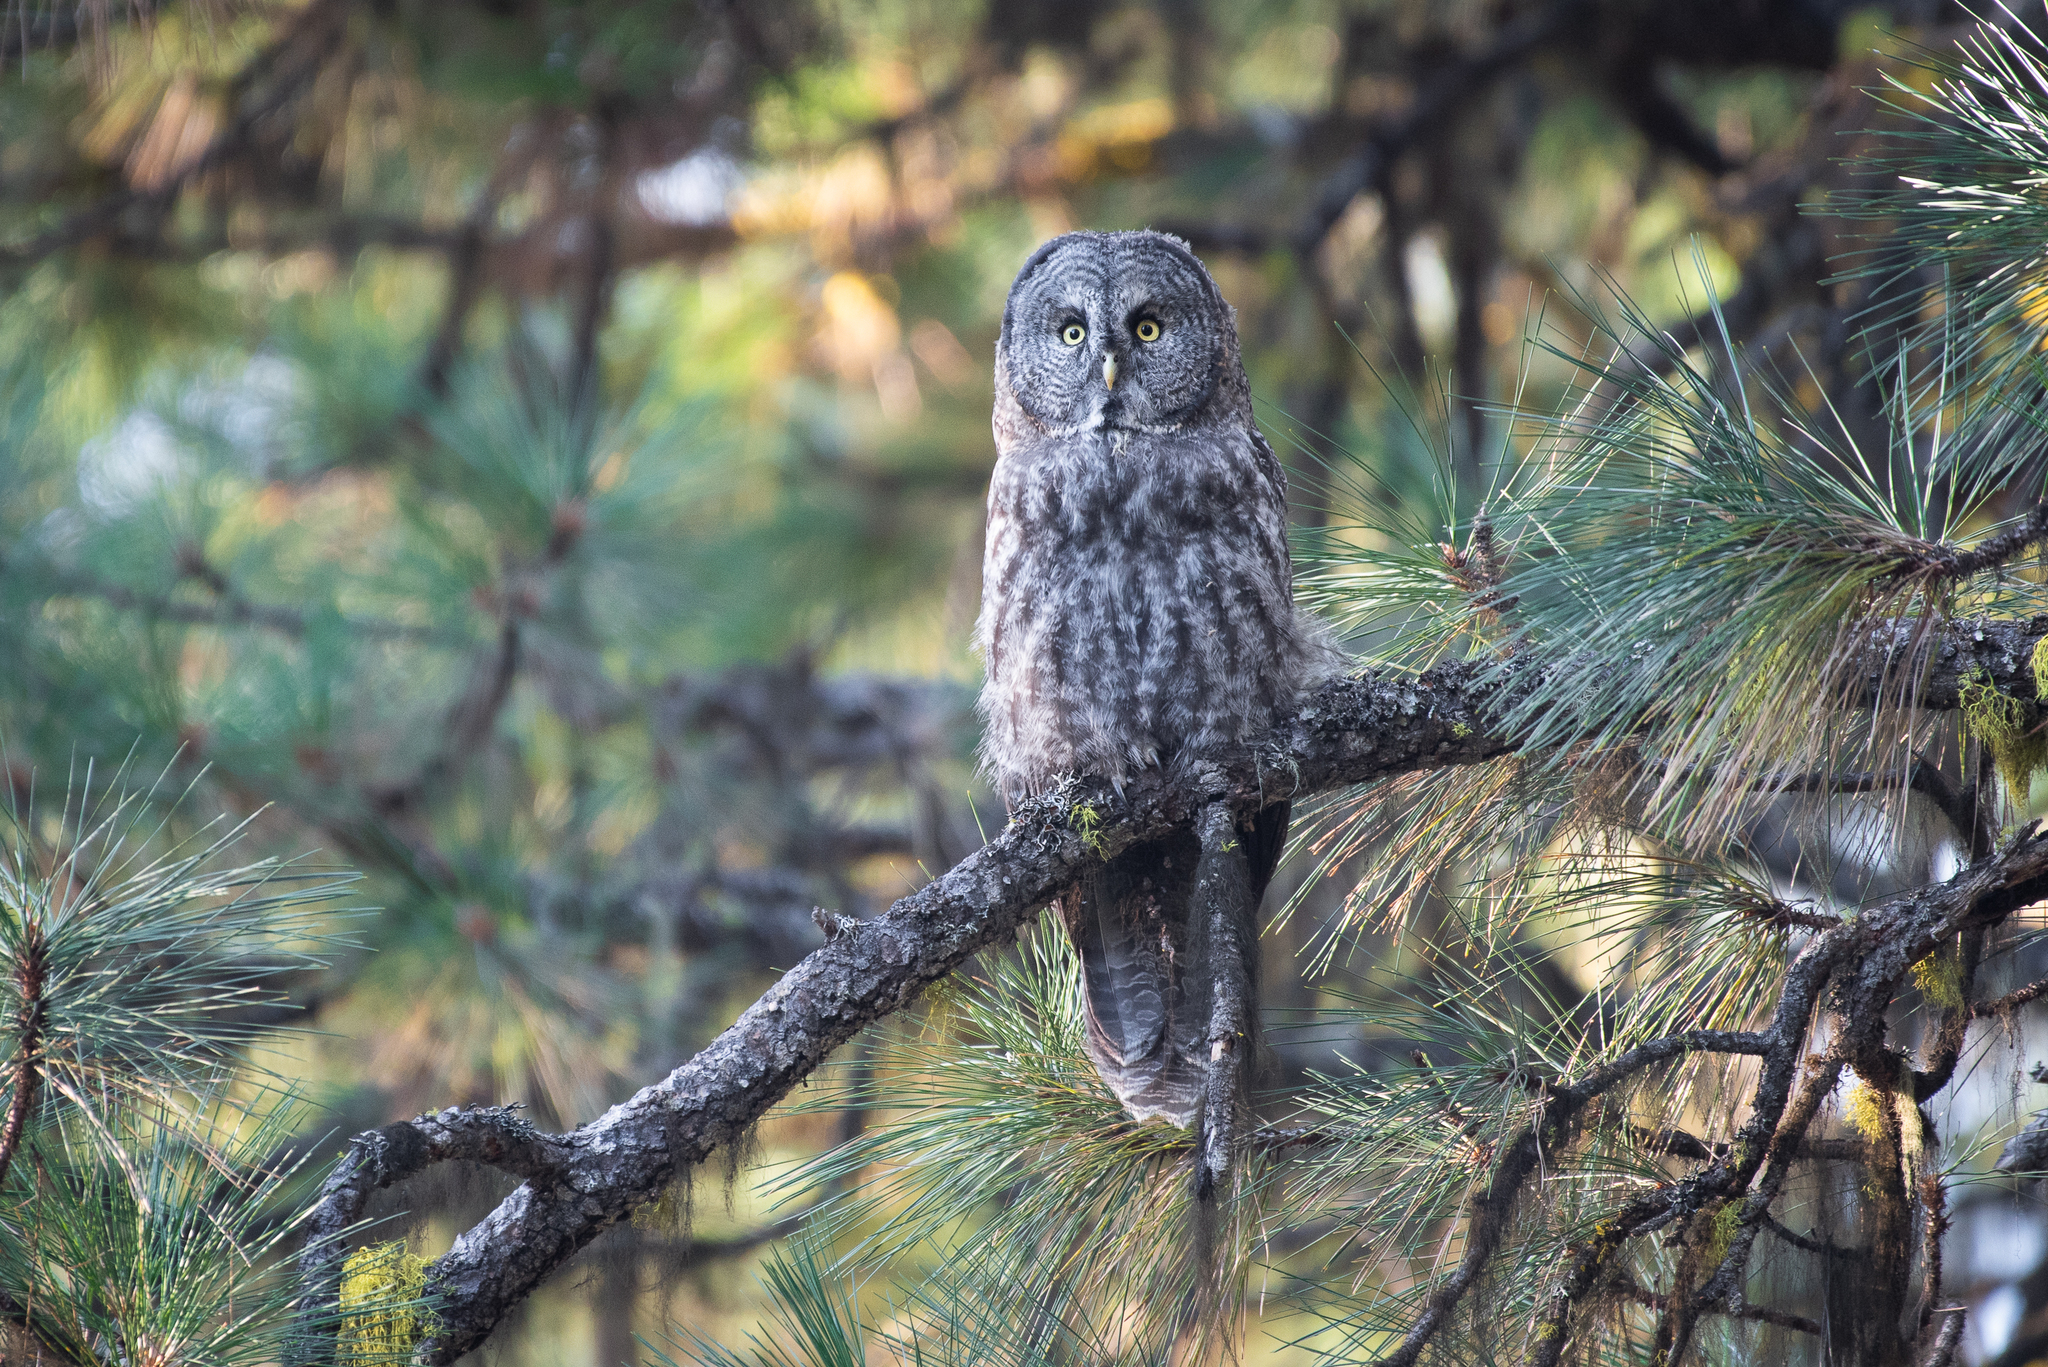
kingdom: Animalia
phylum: Chordata
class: Aves
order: Strigiformes
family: Strigidae
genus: Strix
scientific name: Strix nebulosa
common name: Great grey owl
